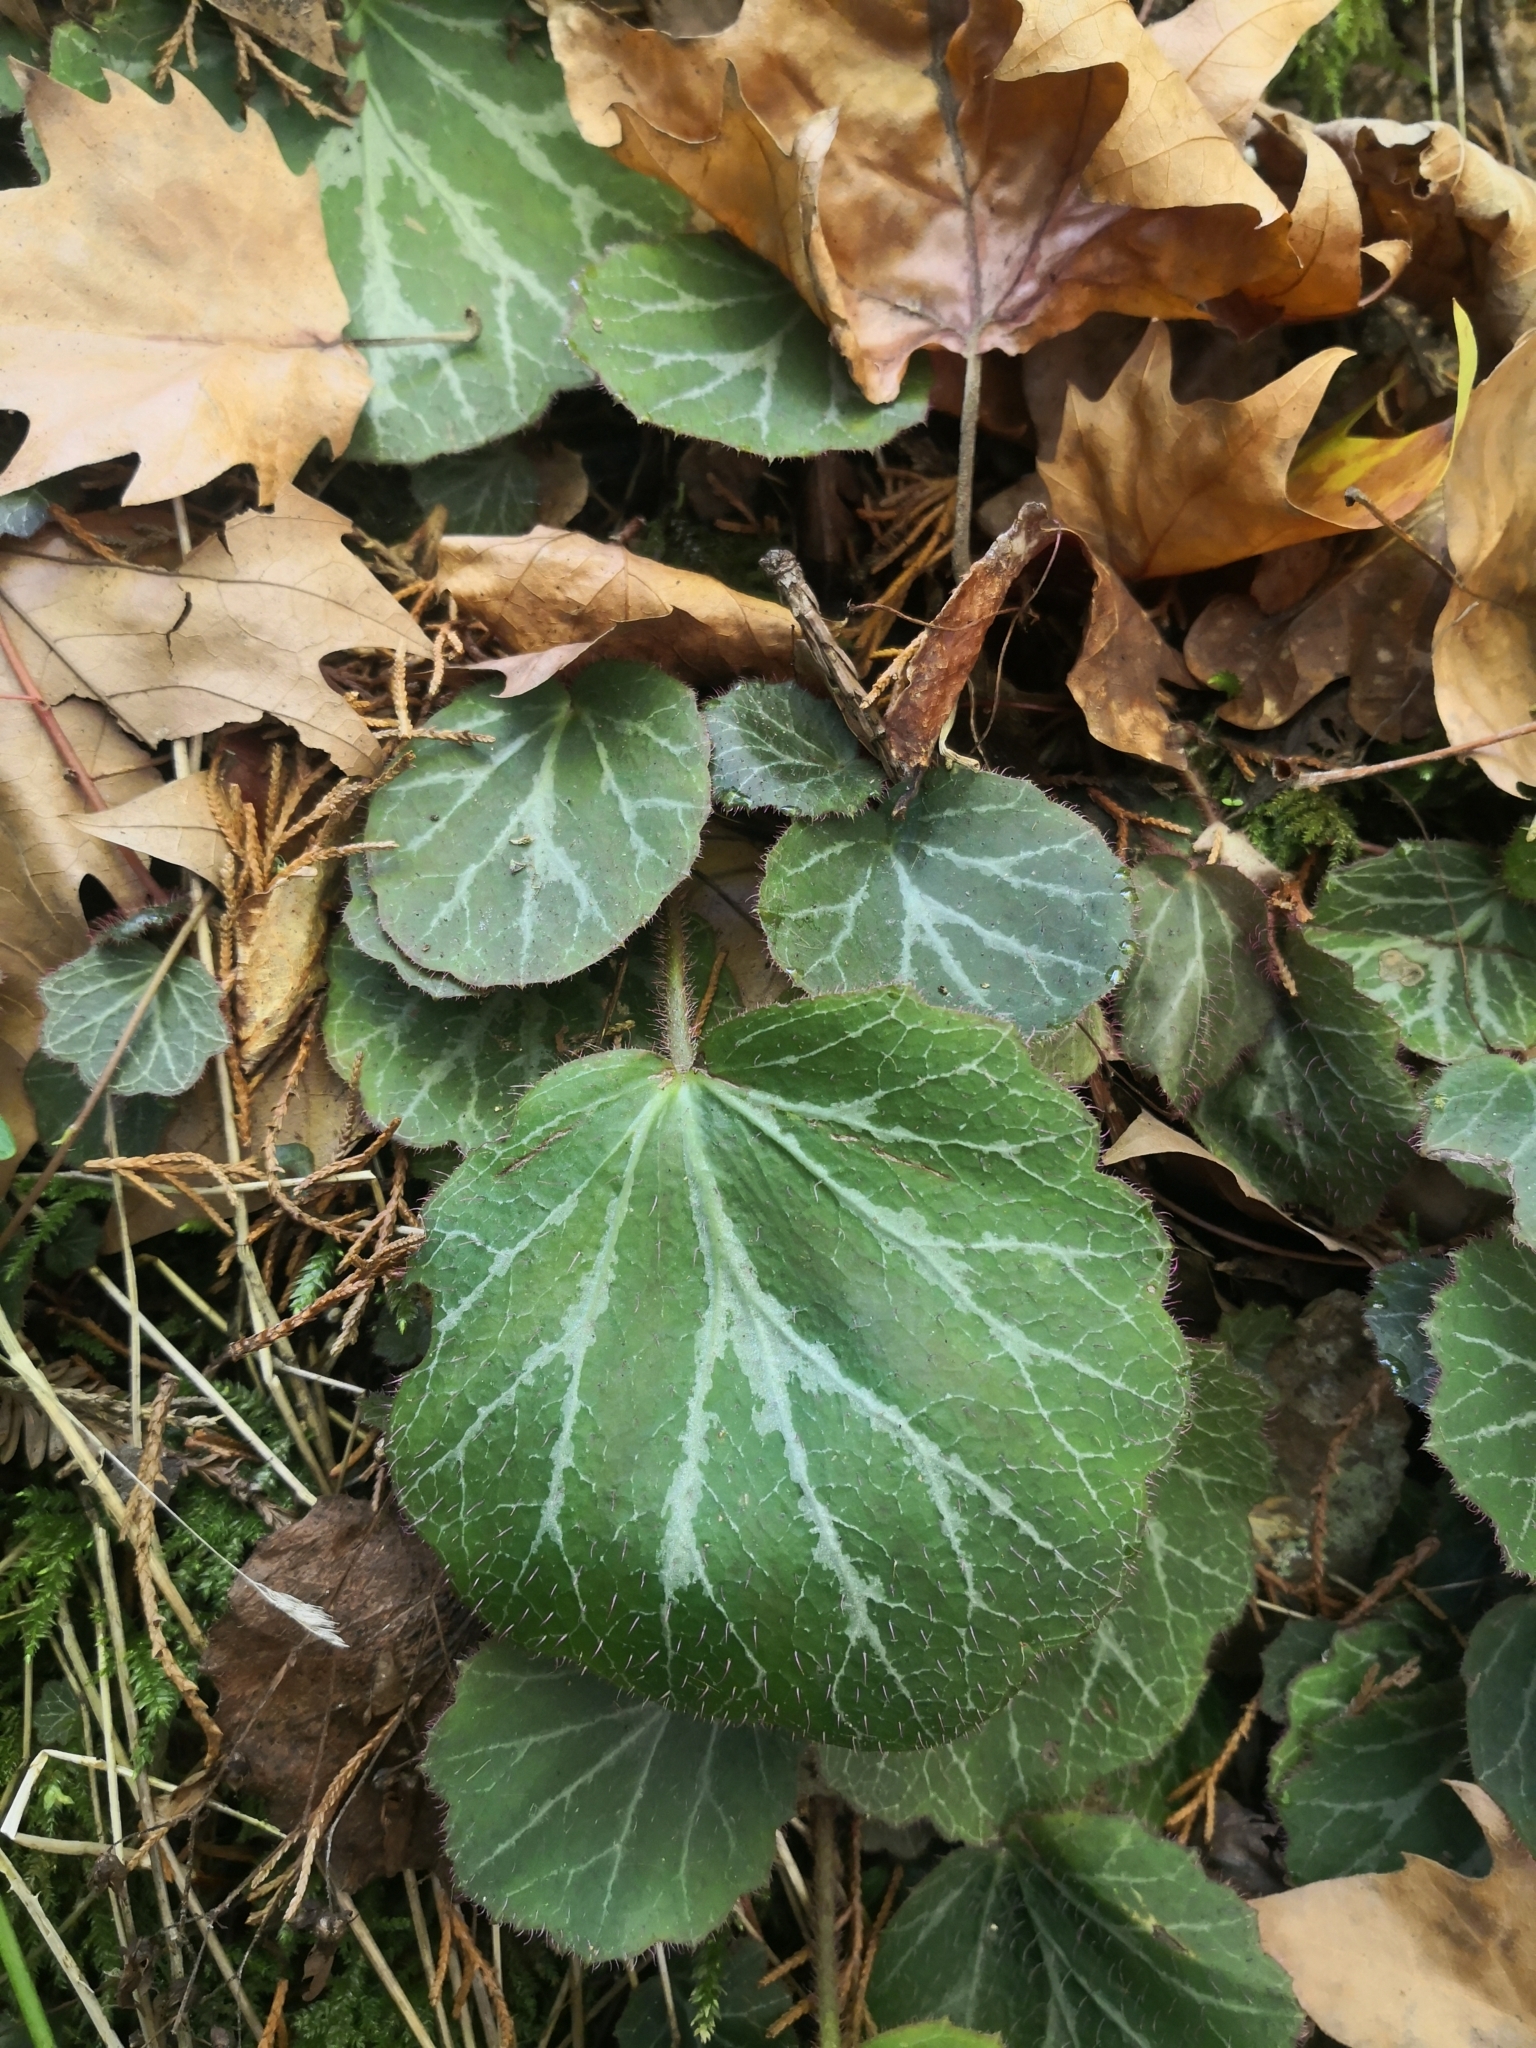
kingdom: Plantae
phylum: Tracheophyta
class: Magnoliopsida
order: Saxifragales
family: Saxifragaceae
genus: Saxifraga
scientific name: Saxifraga stolonifera
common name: Creeping saxifrage
